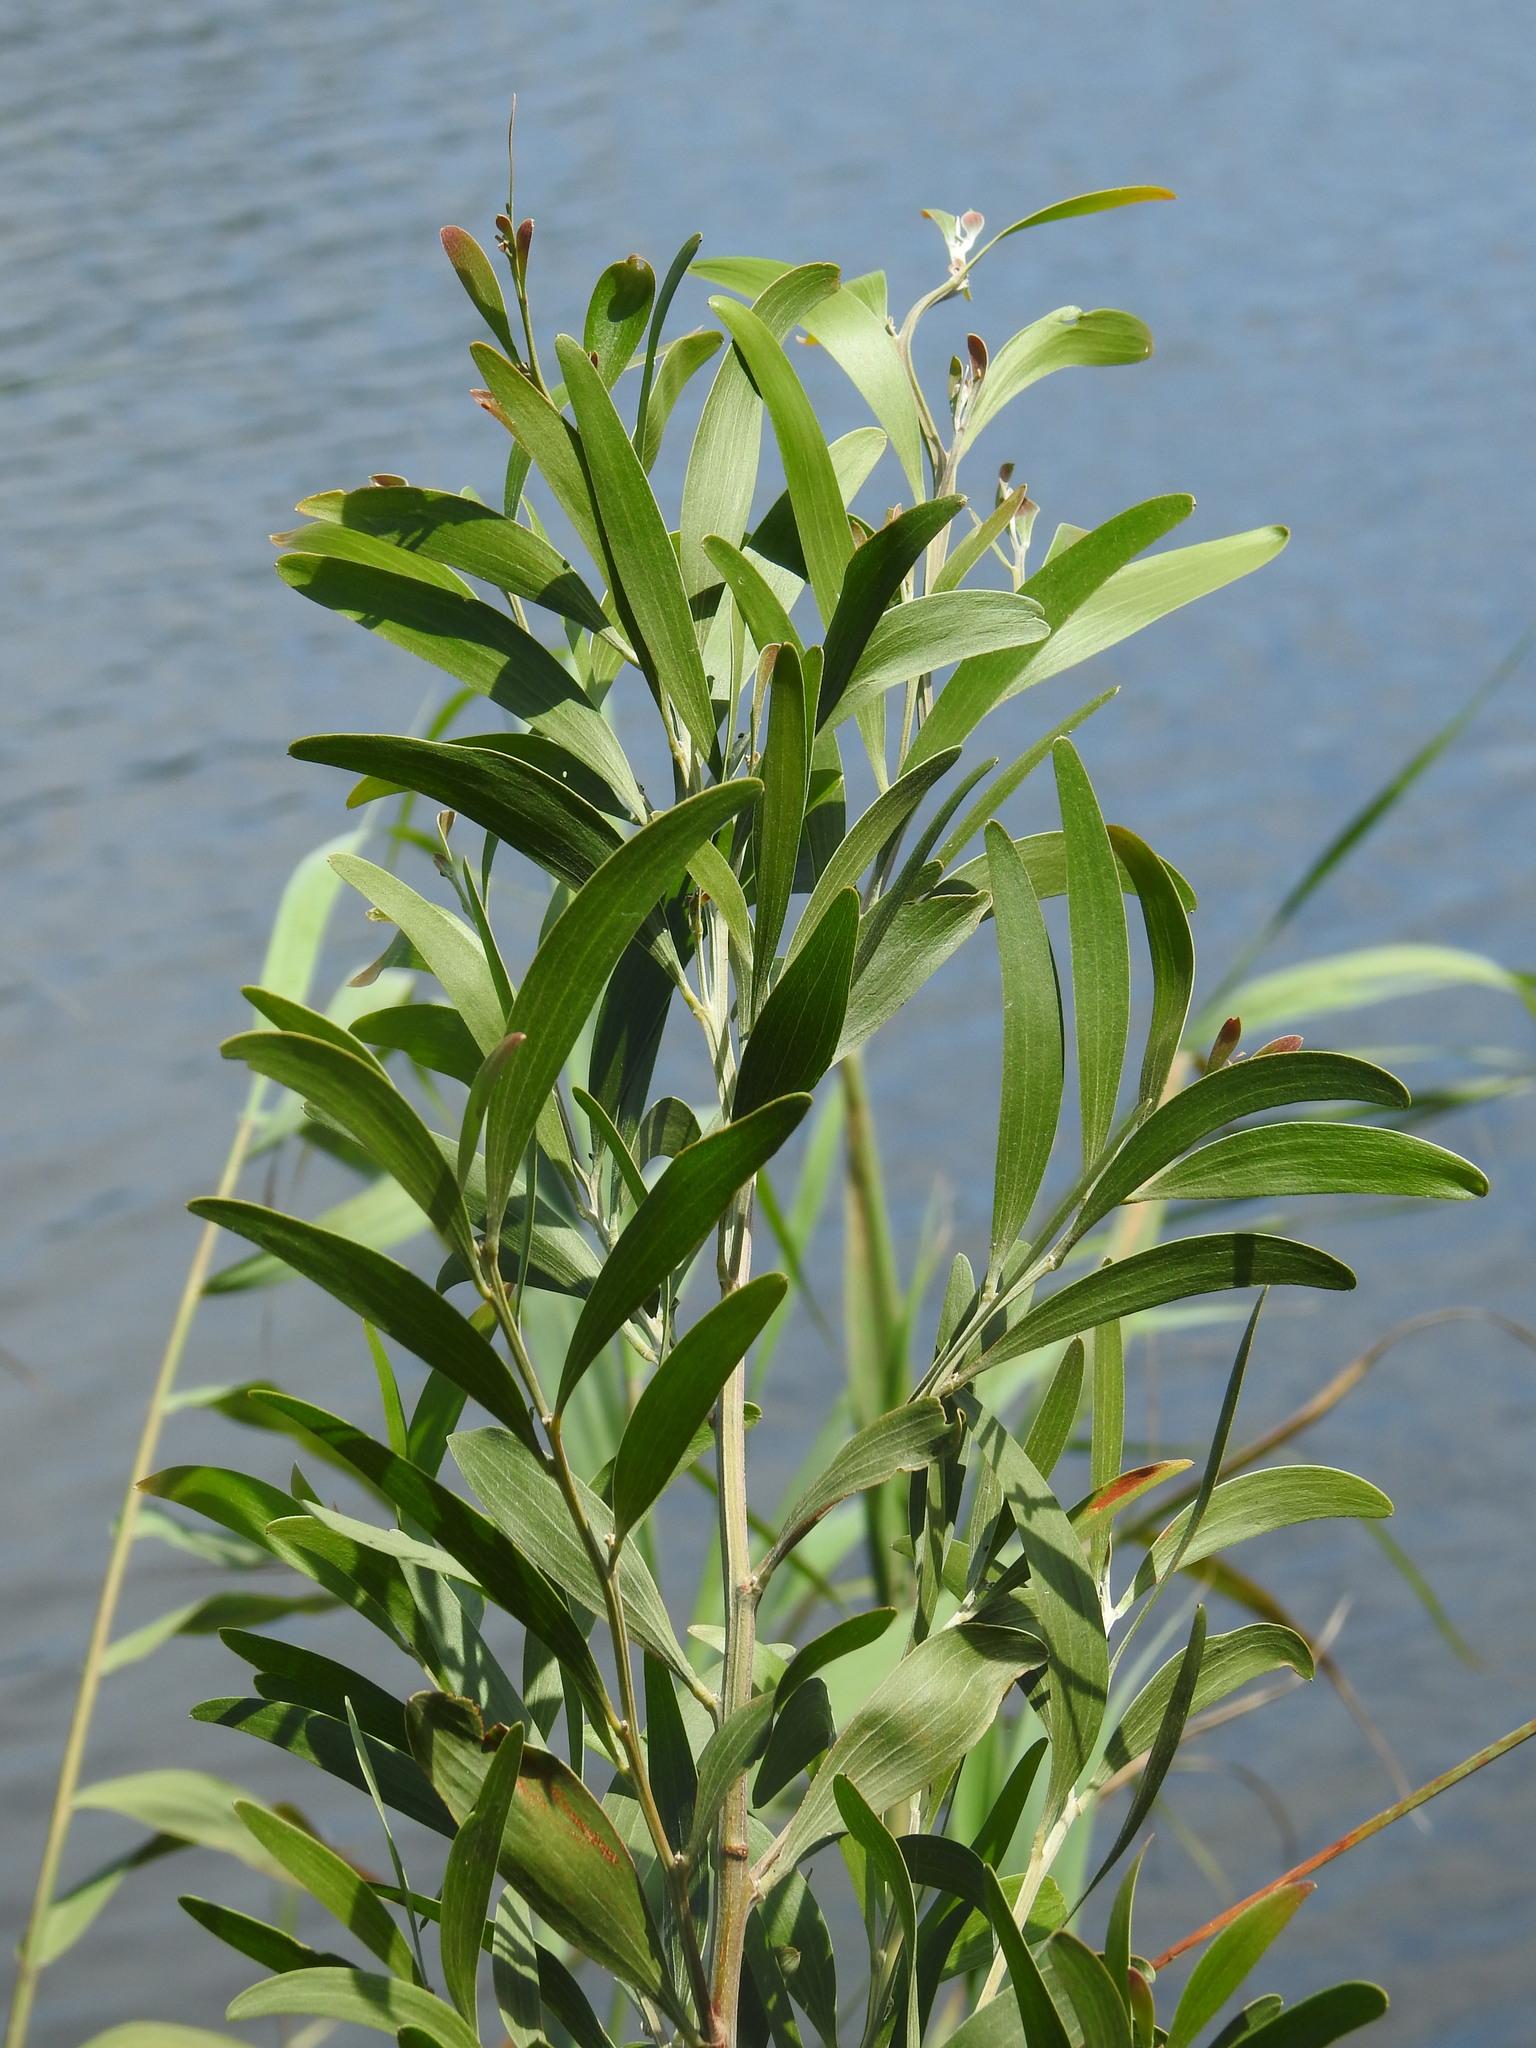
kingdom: Plantae
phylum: Tracheophyta
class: Magnoliopsida
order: Fabales
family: Fabaceae
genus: Acacia
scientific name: Acacia melanoxylon
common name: Blackwood
